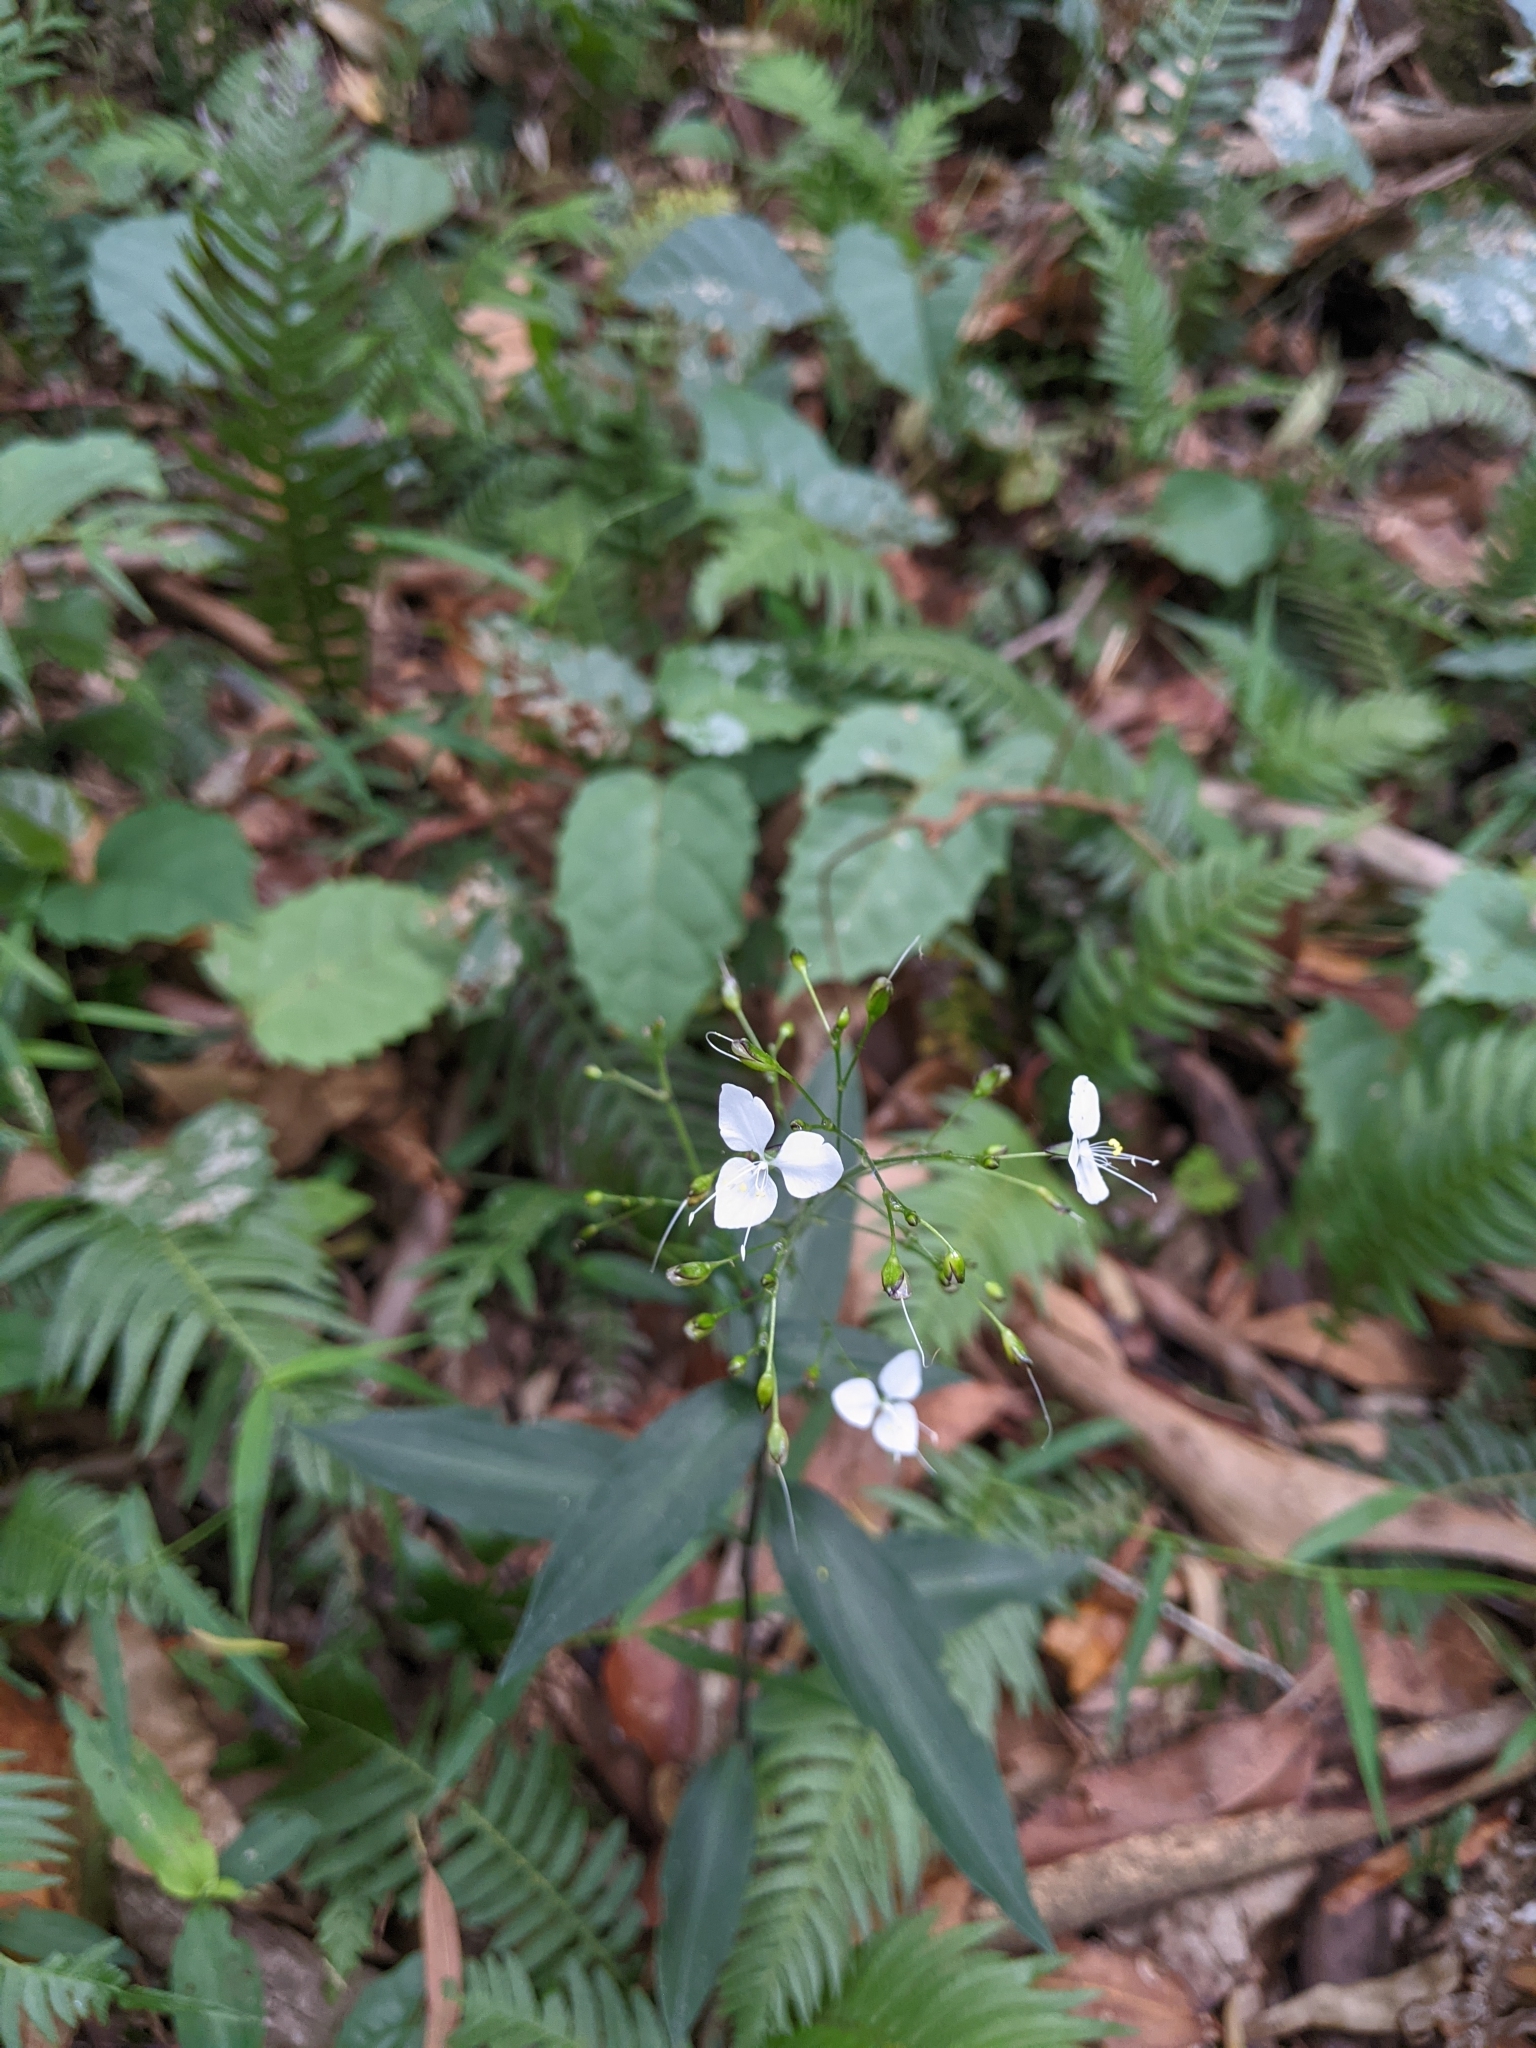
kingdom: Plantae
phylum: Tracheophyta
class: Liliopsida
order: Commelinales
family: Commelinaceae
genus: Aneilema
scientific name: Aneilema acuminatum
